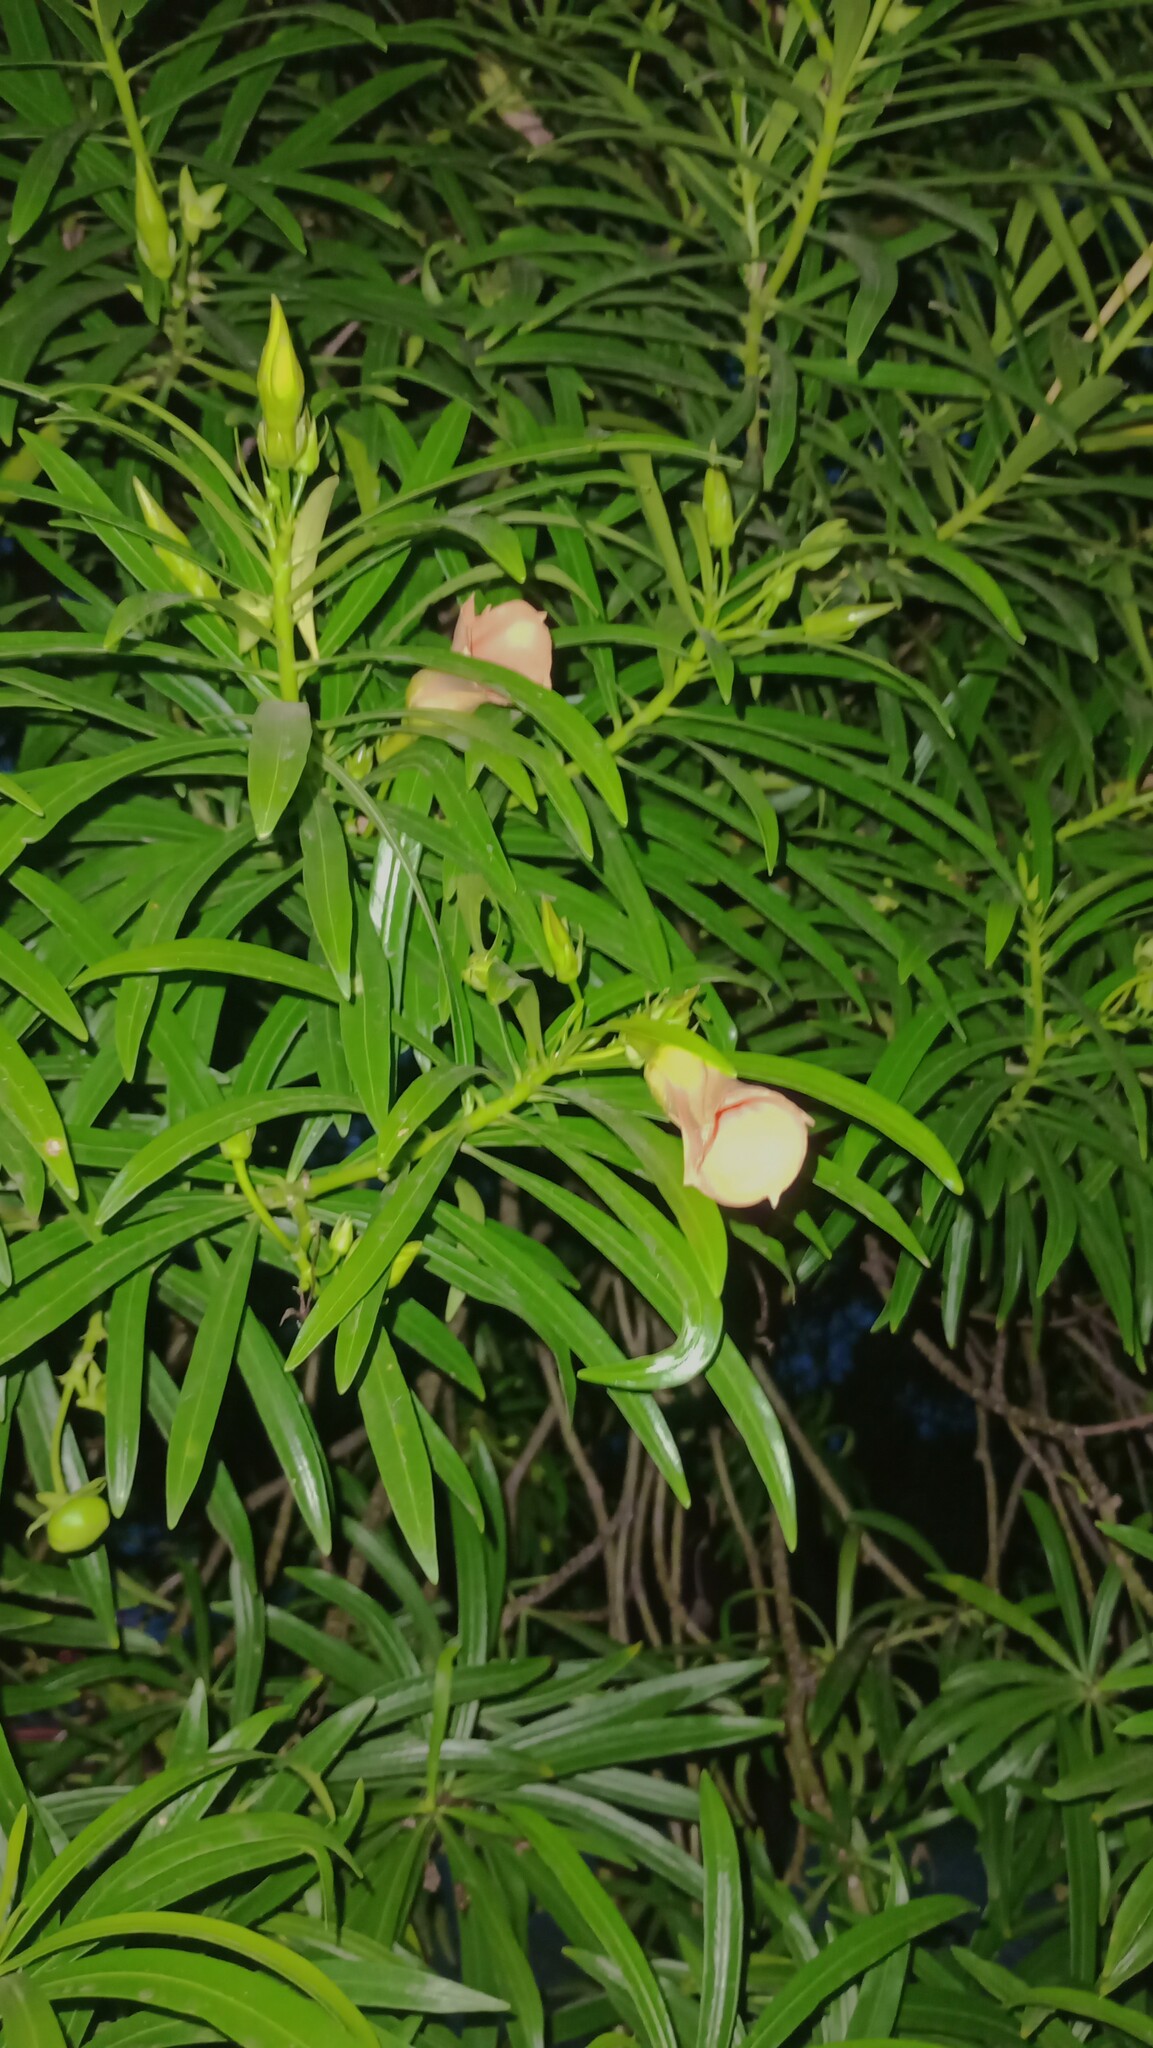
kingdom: Plantae
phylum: Tracheophyta
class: Magnoliopsida
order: Gentianales
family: Apocynaceae
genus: Cascabela
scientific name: Cascabela thevetia
